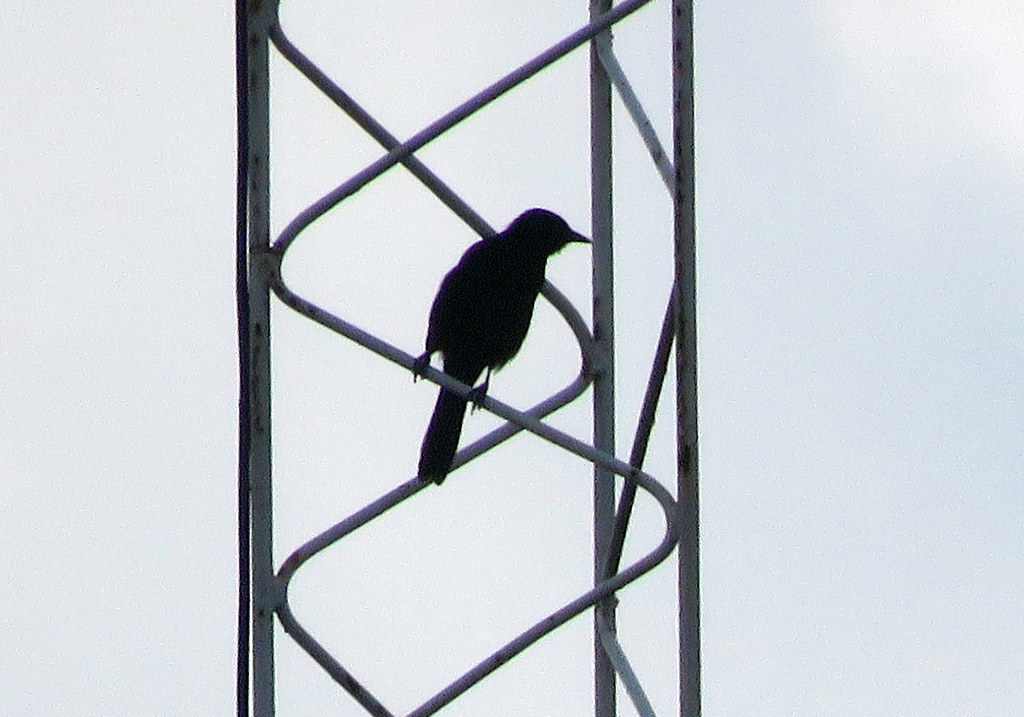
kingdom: Animalia
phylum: Chordata
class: Aves
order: Passeriformes
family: Icteridae
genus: Icterus
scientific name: Icterus cayanensis
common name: Epaulet oriole
